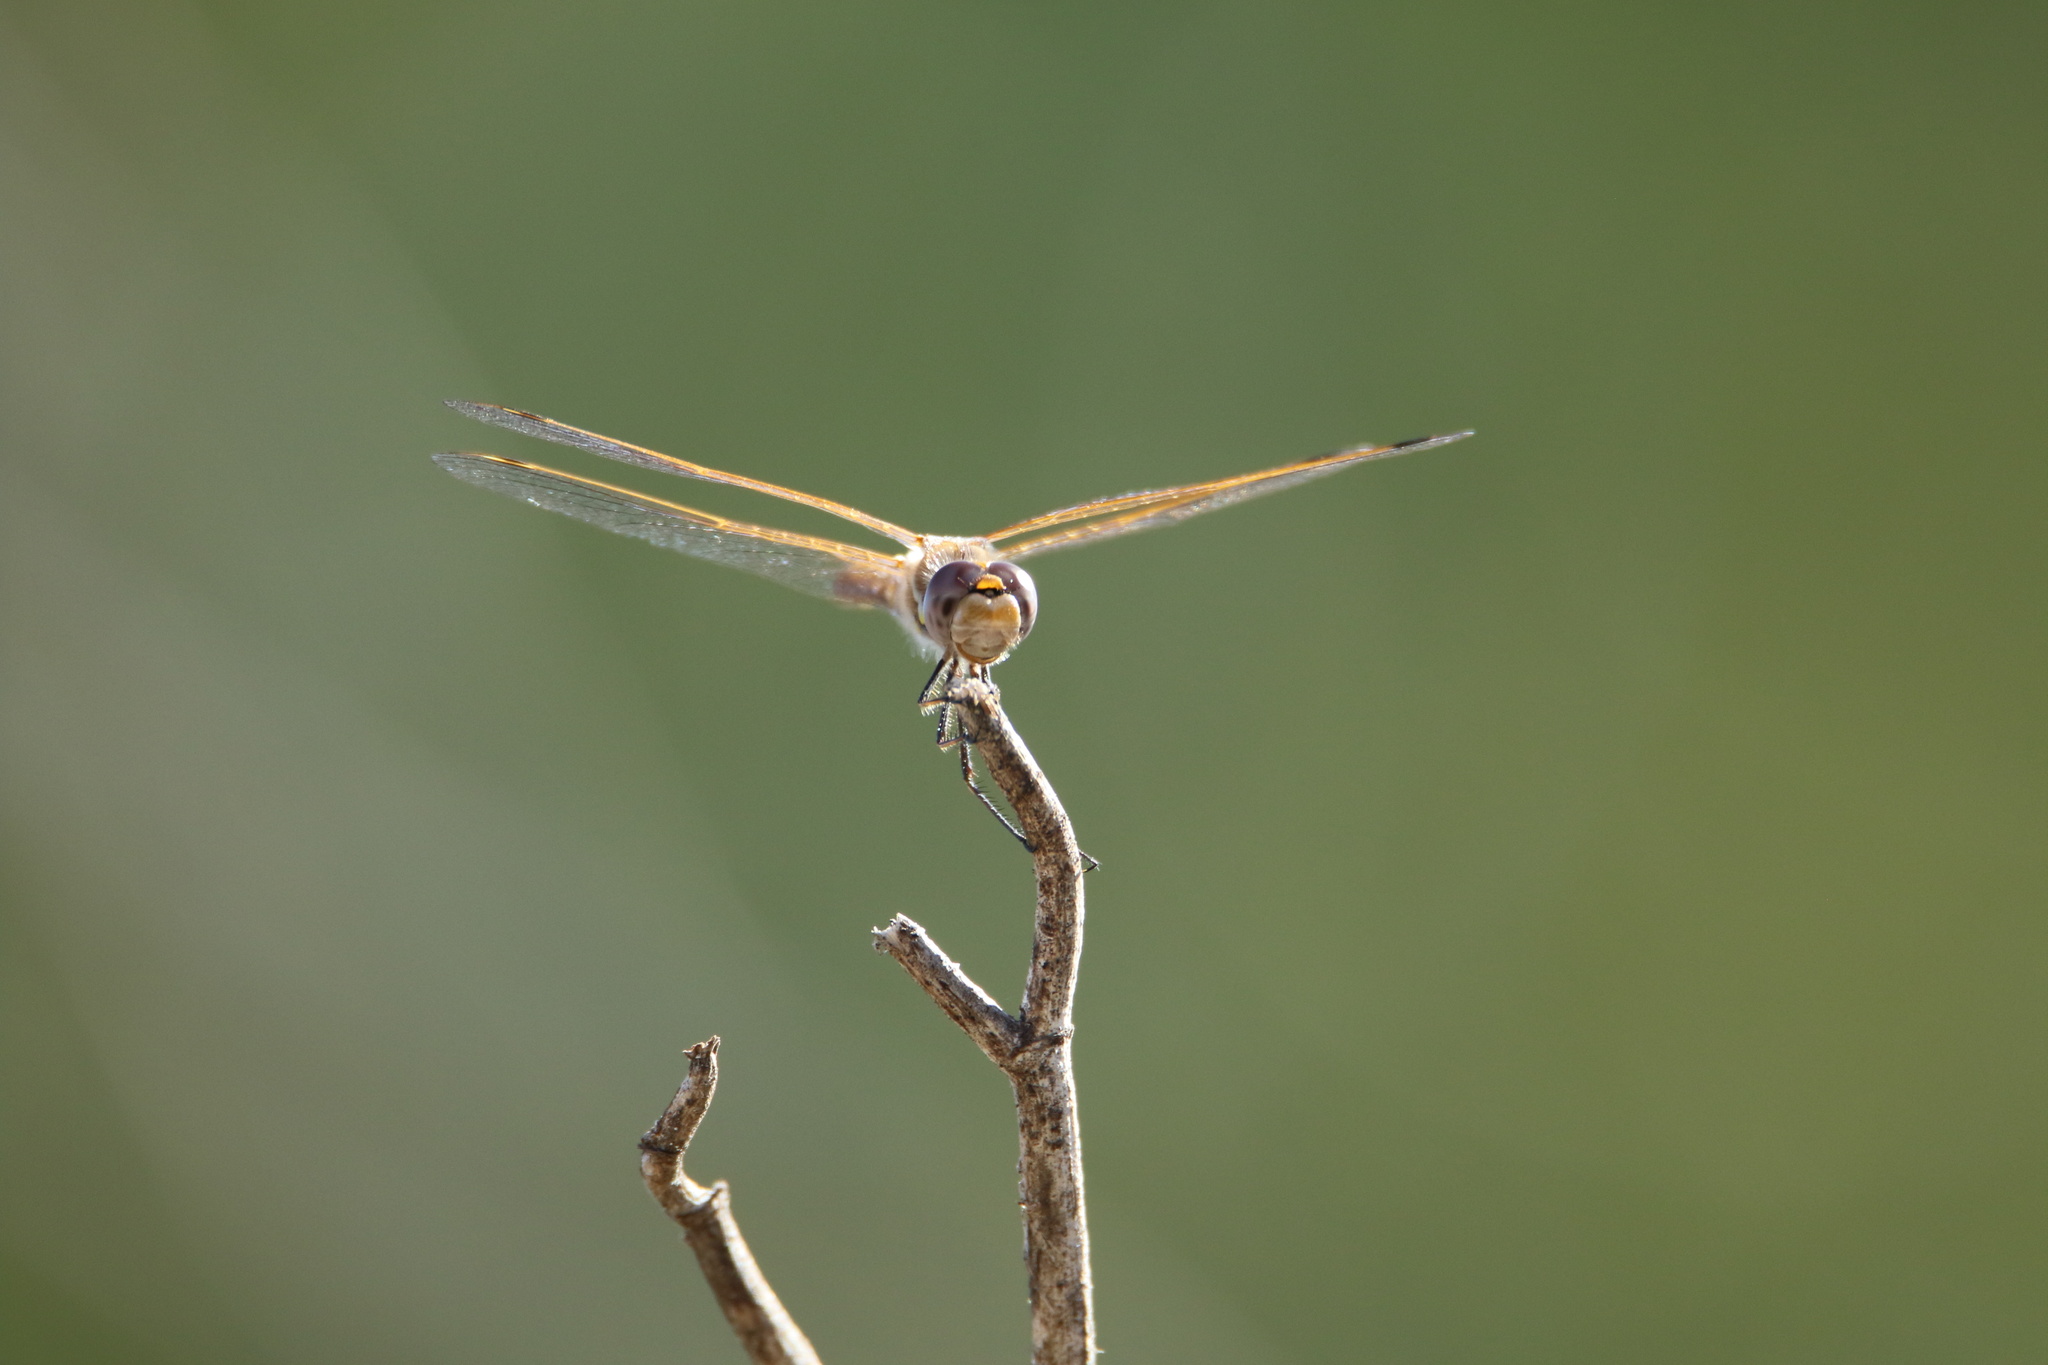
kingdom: Animalia
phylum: Arthropoda
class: Insecta
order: Odonata
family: Libellulidae
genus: Sympetrum
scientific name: Sympetrum corruptum
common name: Variegated meadowhawk
